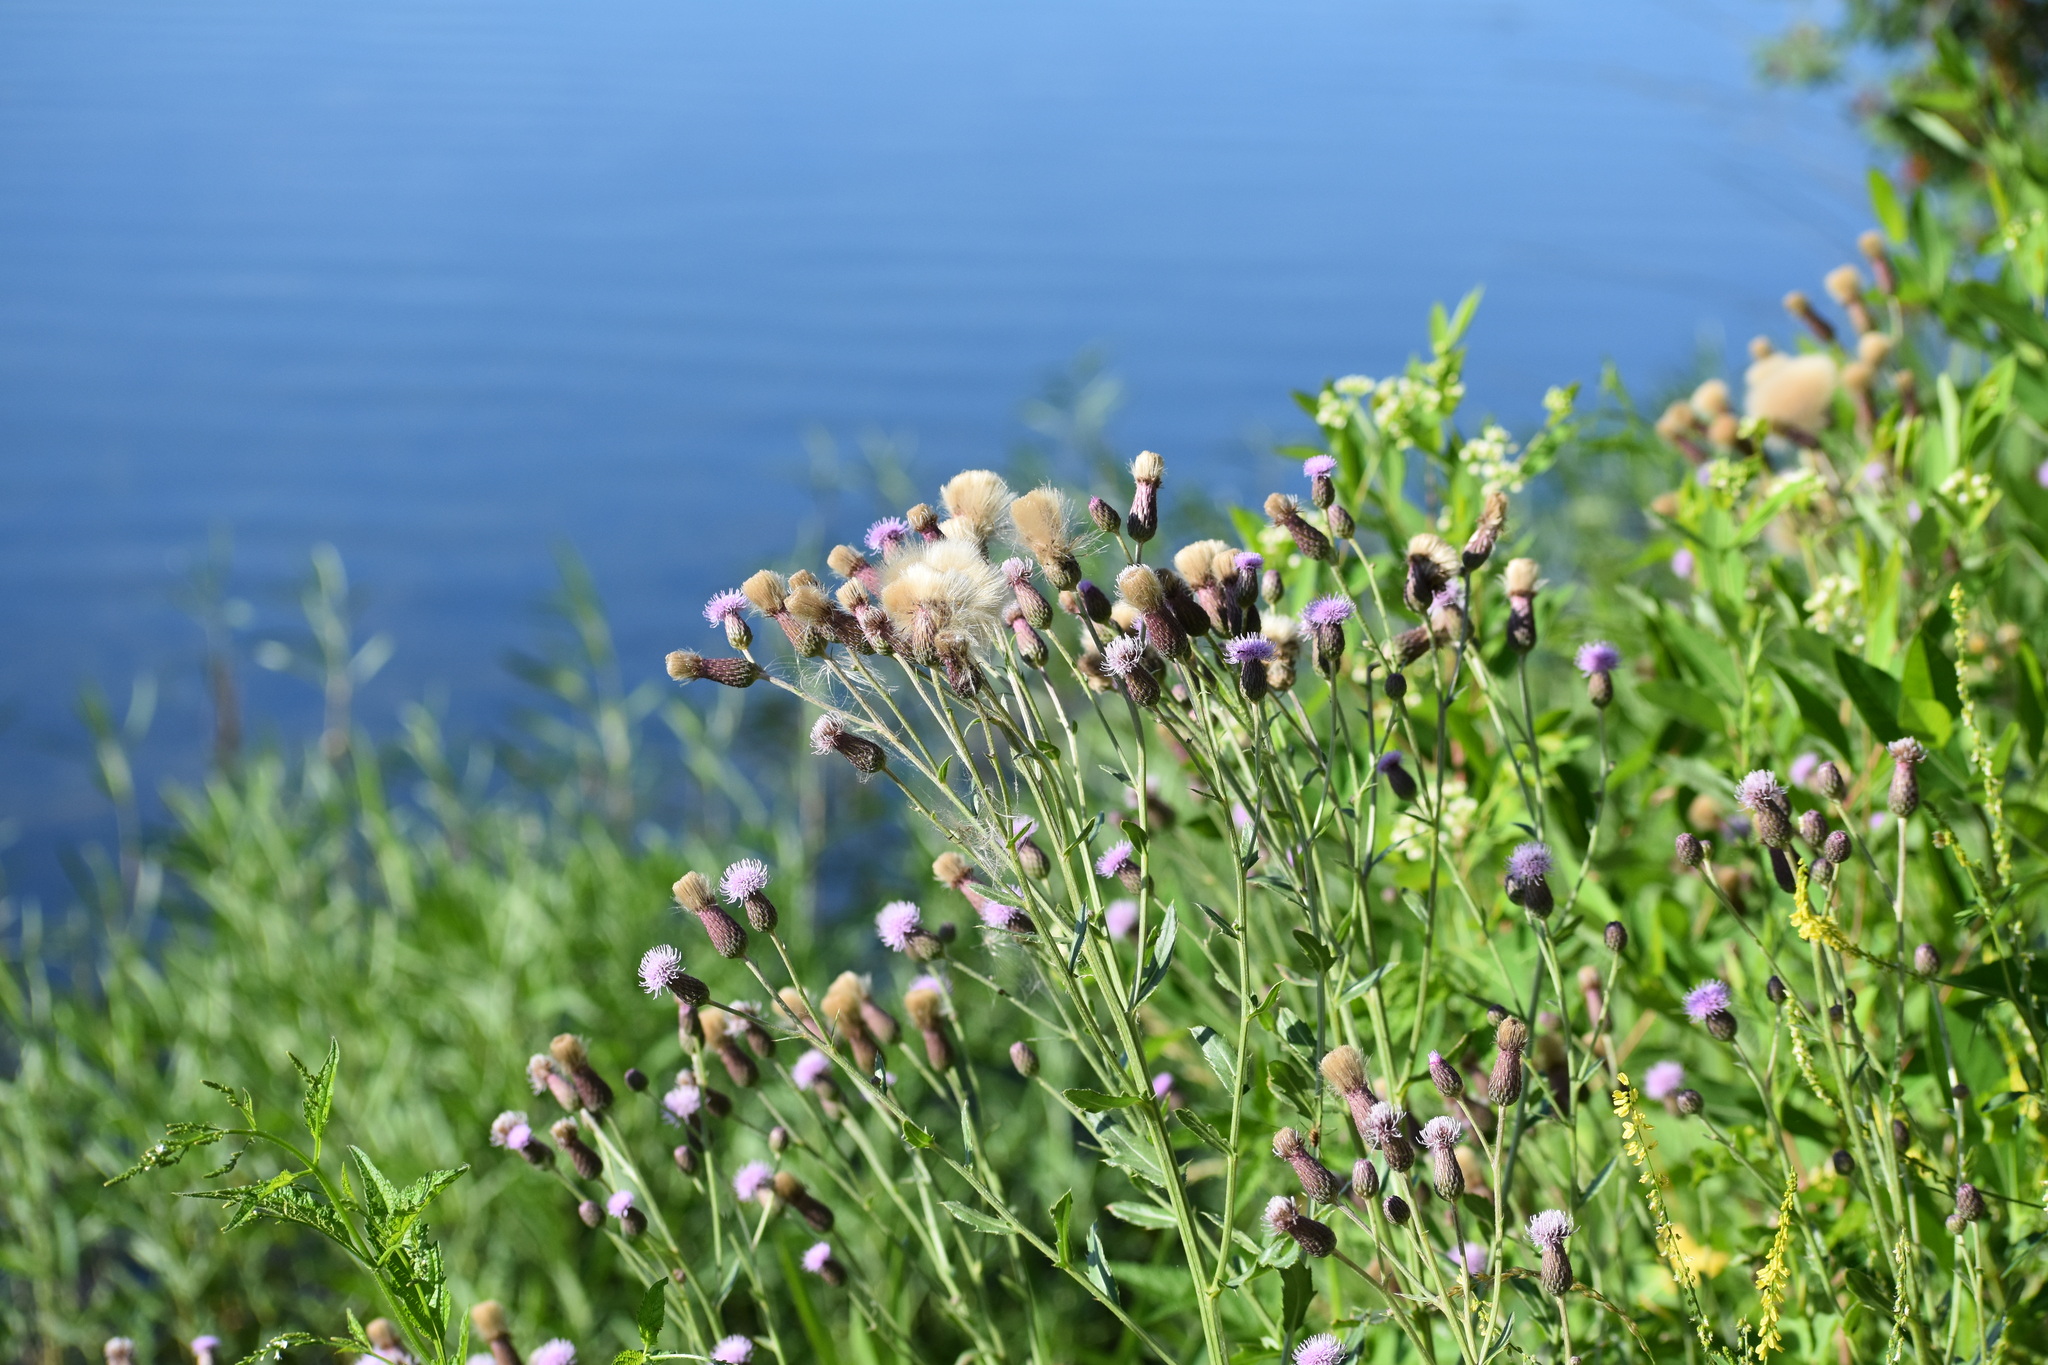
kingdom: Plantae
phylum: Tracheophyta
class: Magnoliopsida
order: Asterales
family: Asteraceae
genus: Cirsium
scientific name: Cirsium arvense
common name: Creeping thistle
